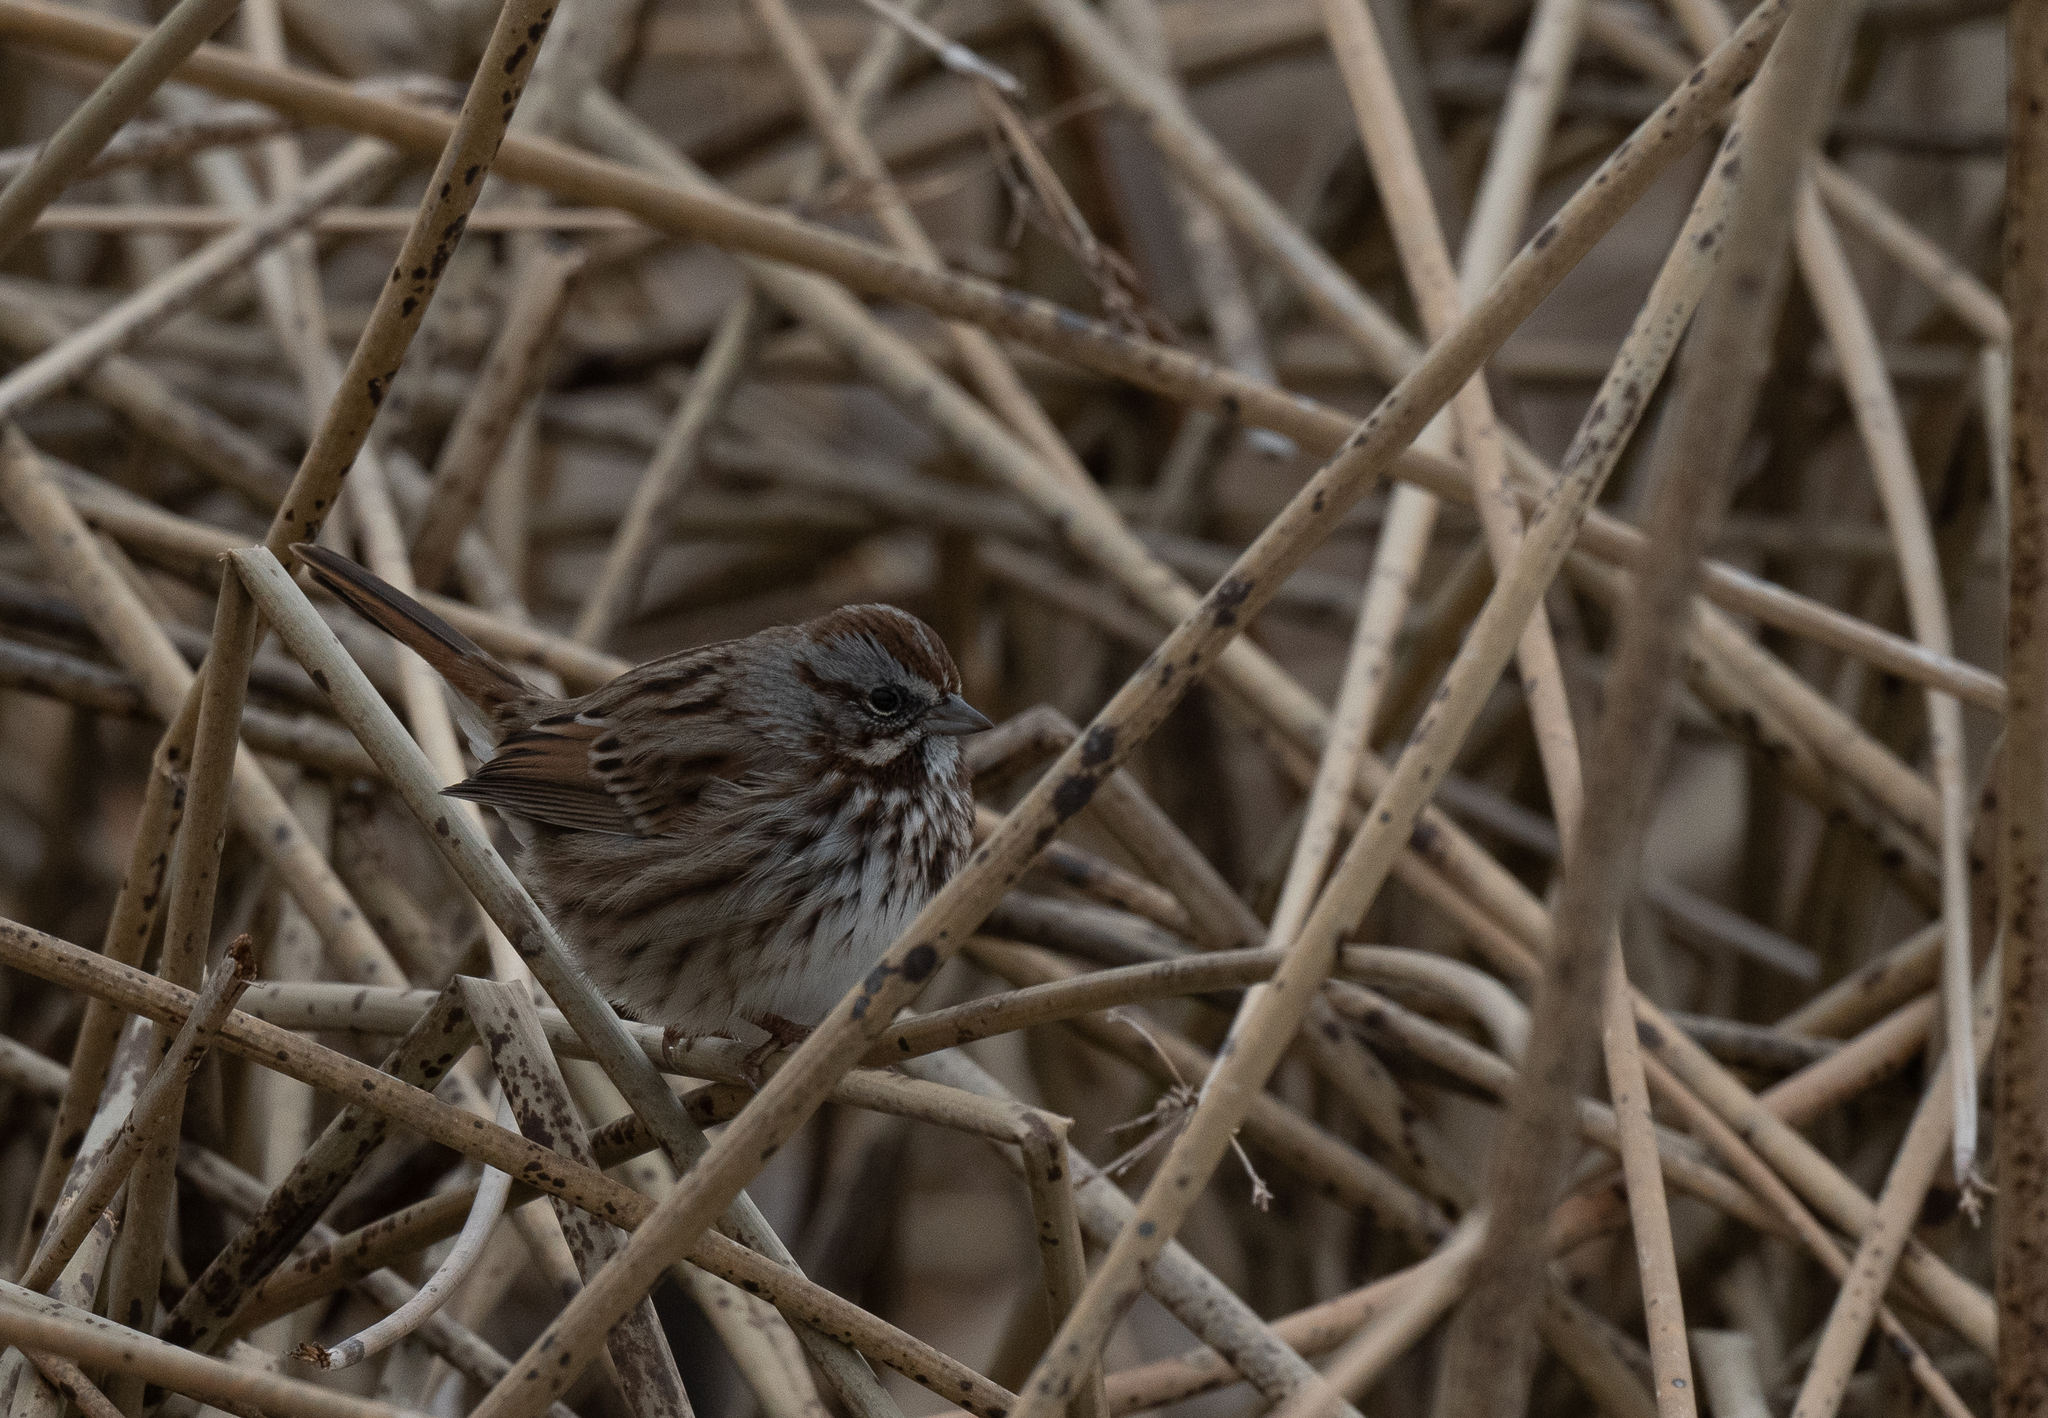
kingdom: Animalia
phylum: Chordata
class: Aves
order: Passeriformes
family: Passerellidae
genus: Melospiza
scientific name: Melospiza melodia
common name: Song sparrow
